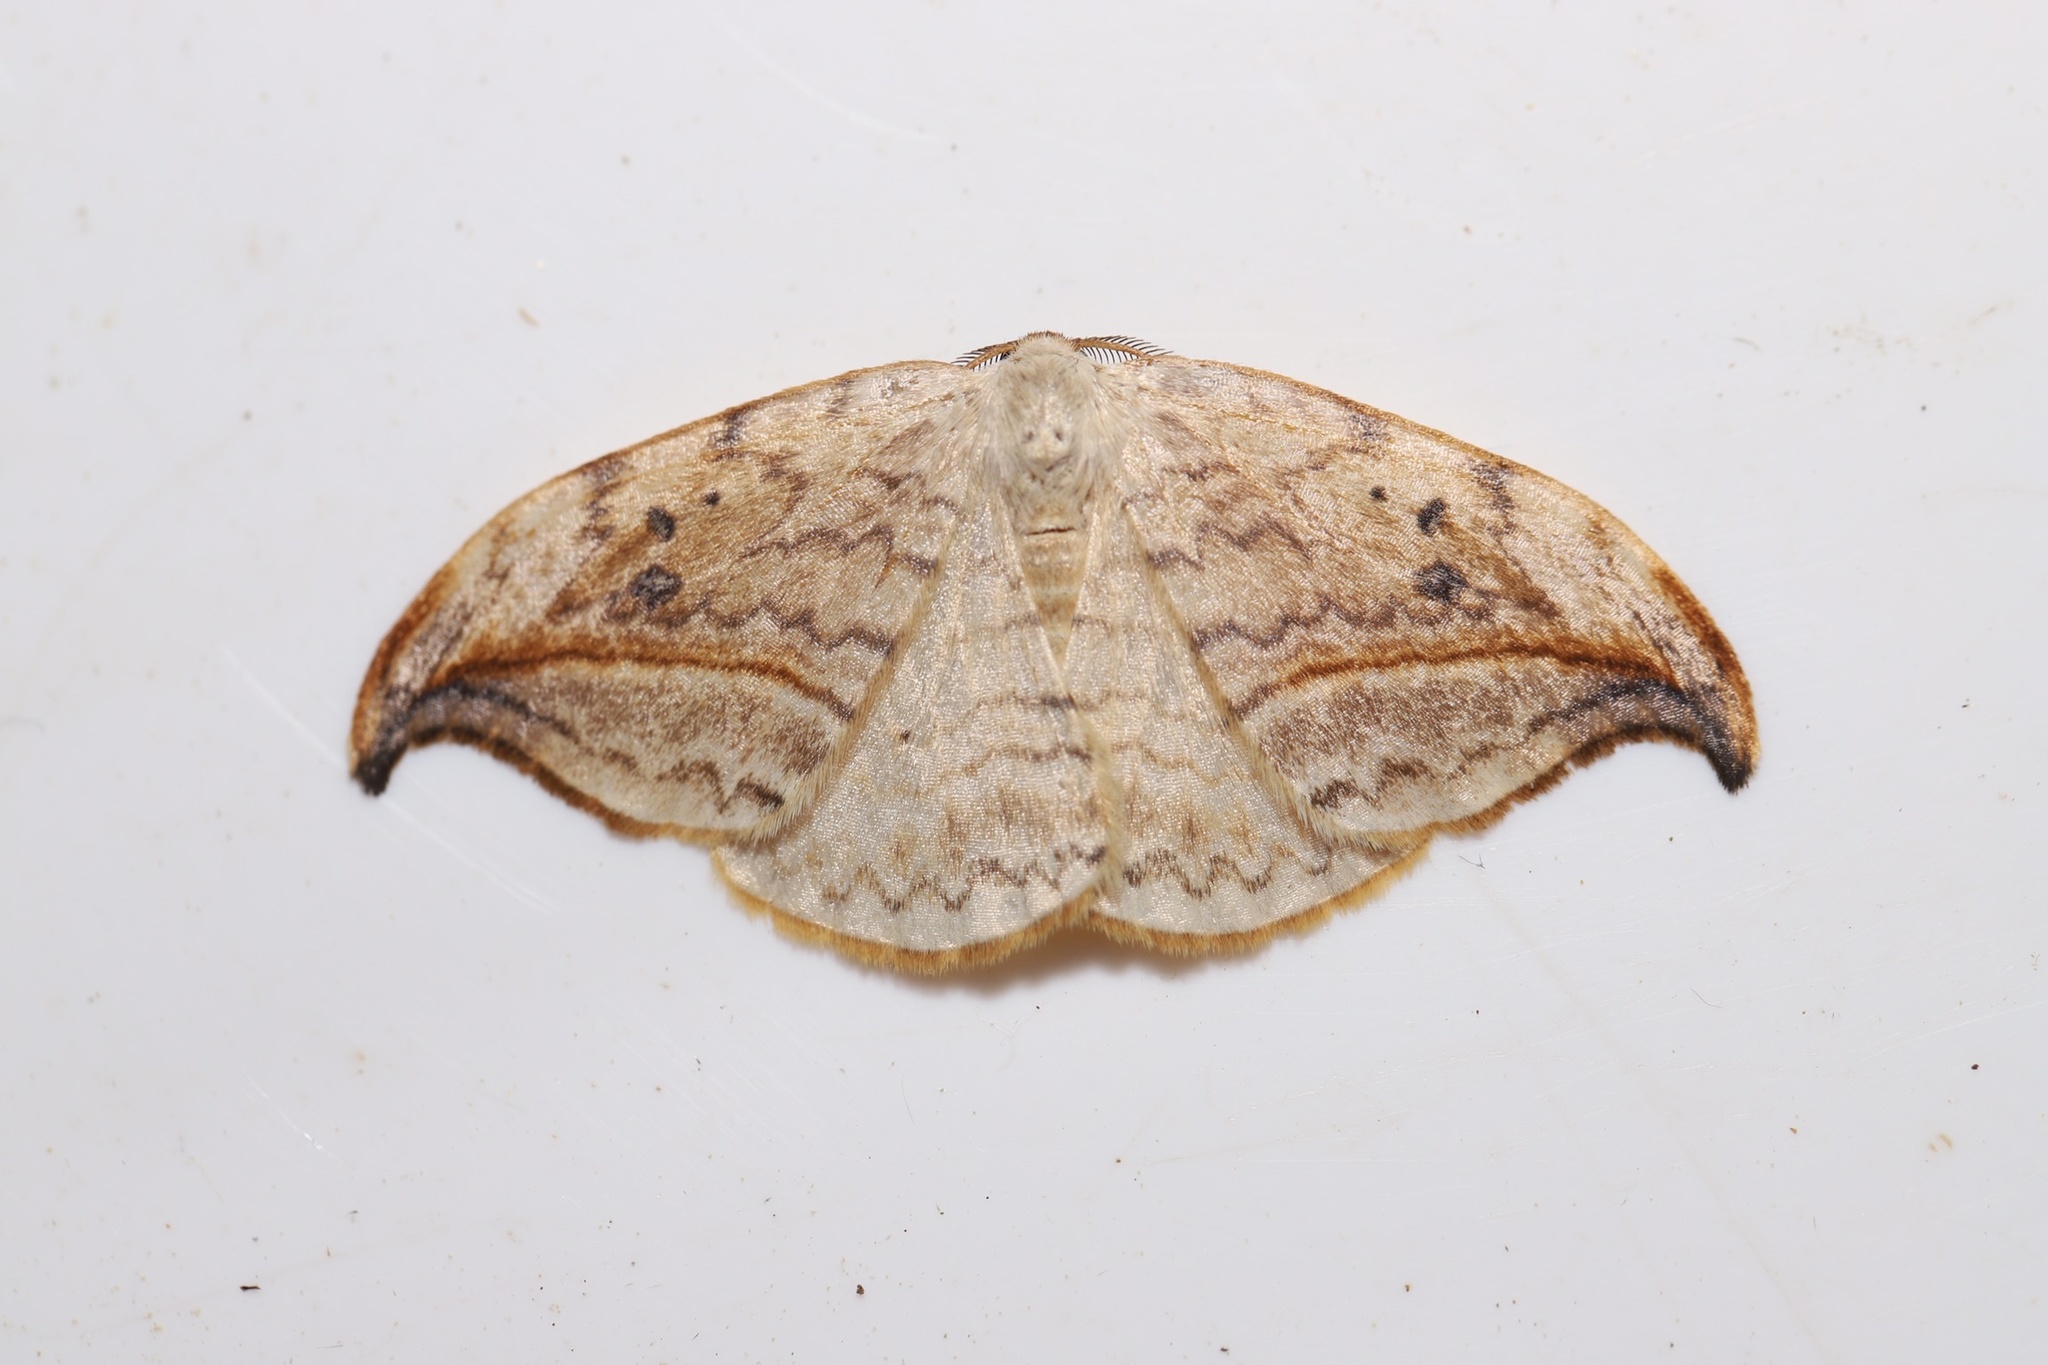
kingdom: Animalia
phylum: Arthropoda
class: Insecta
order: Lepidoptera
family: Drepanidae
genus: Drepana
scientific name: Drepana arcuata
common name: Arched hooktip moth
